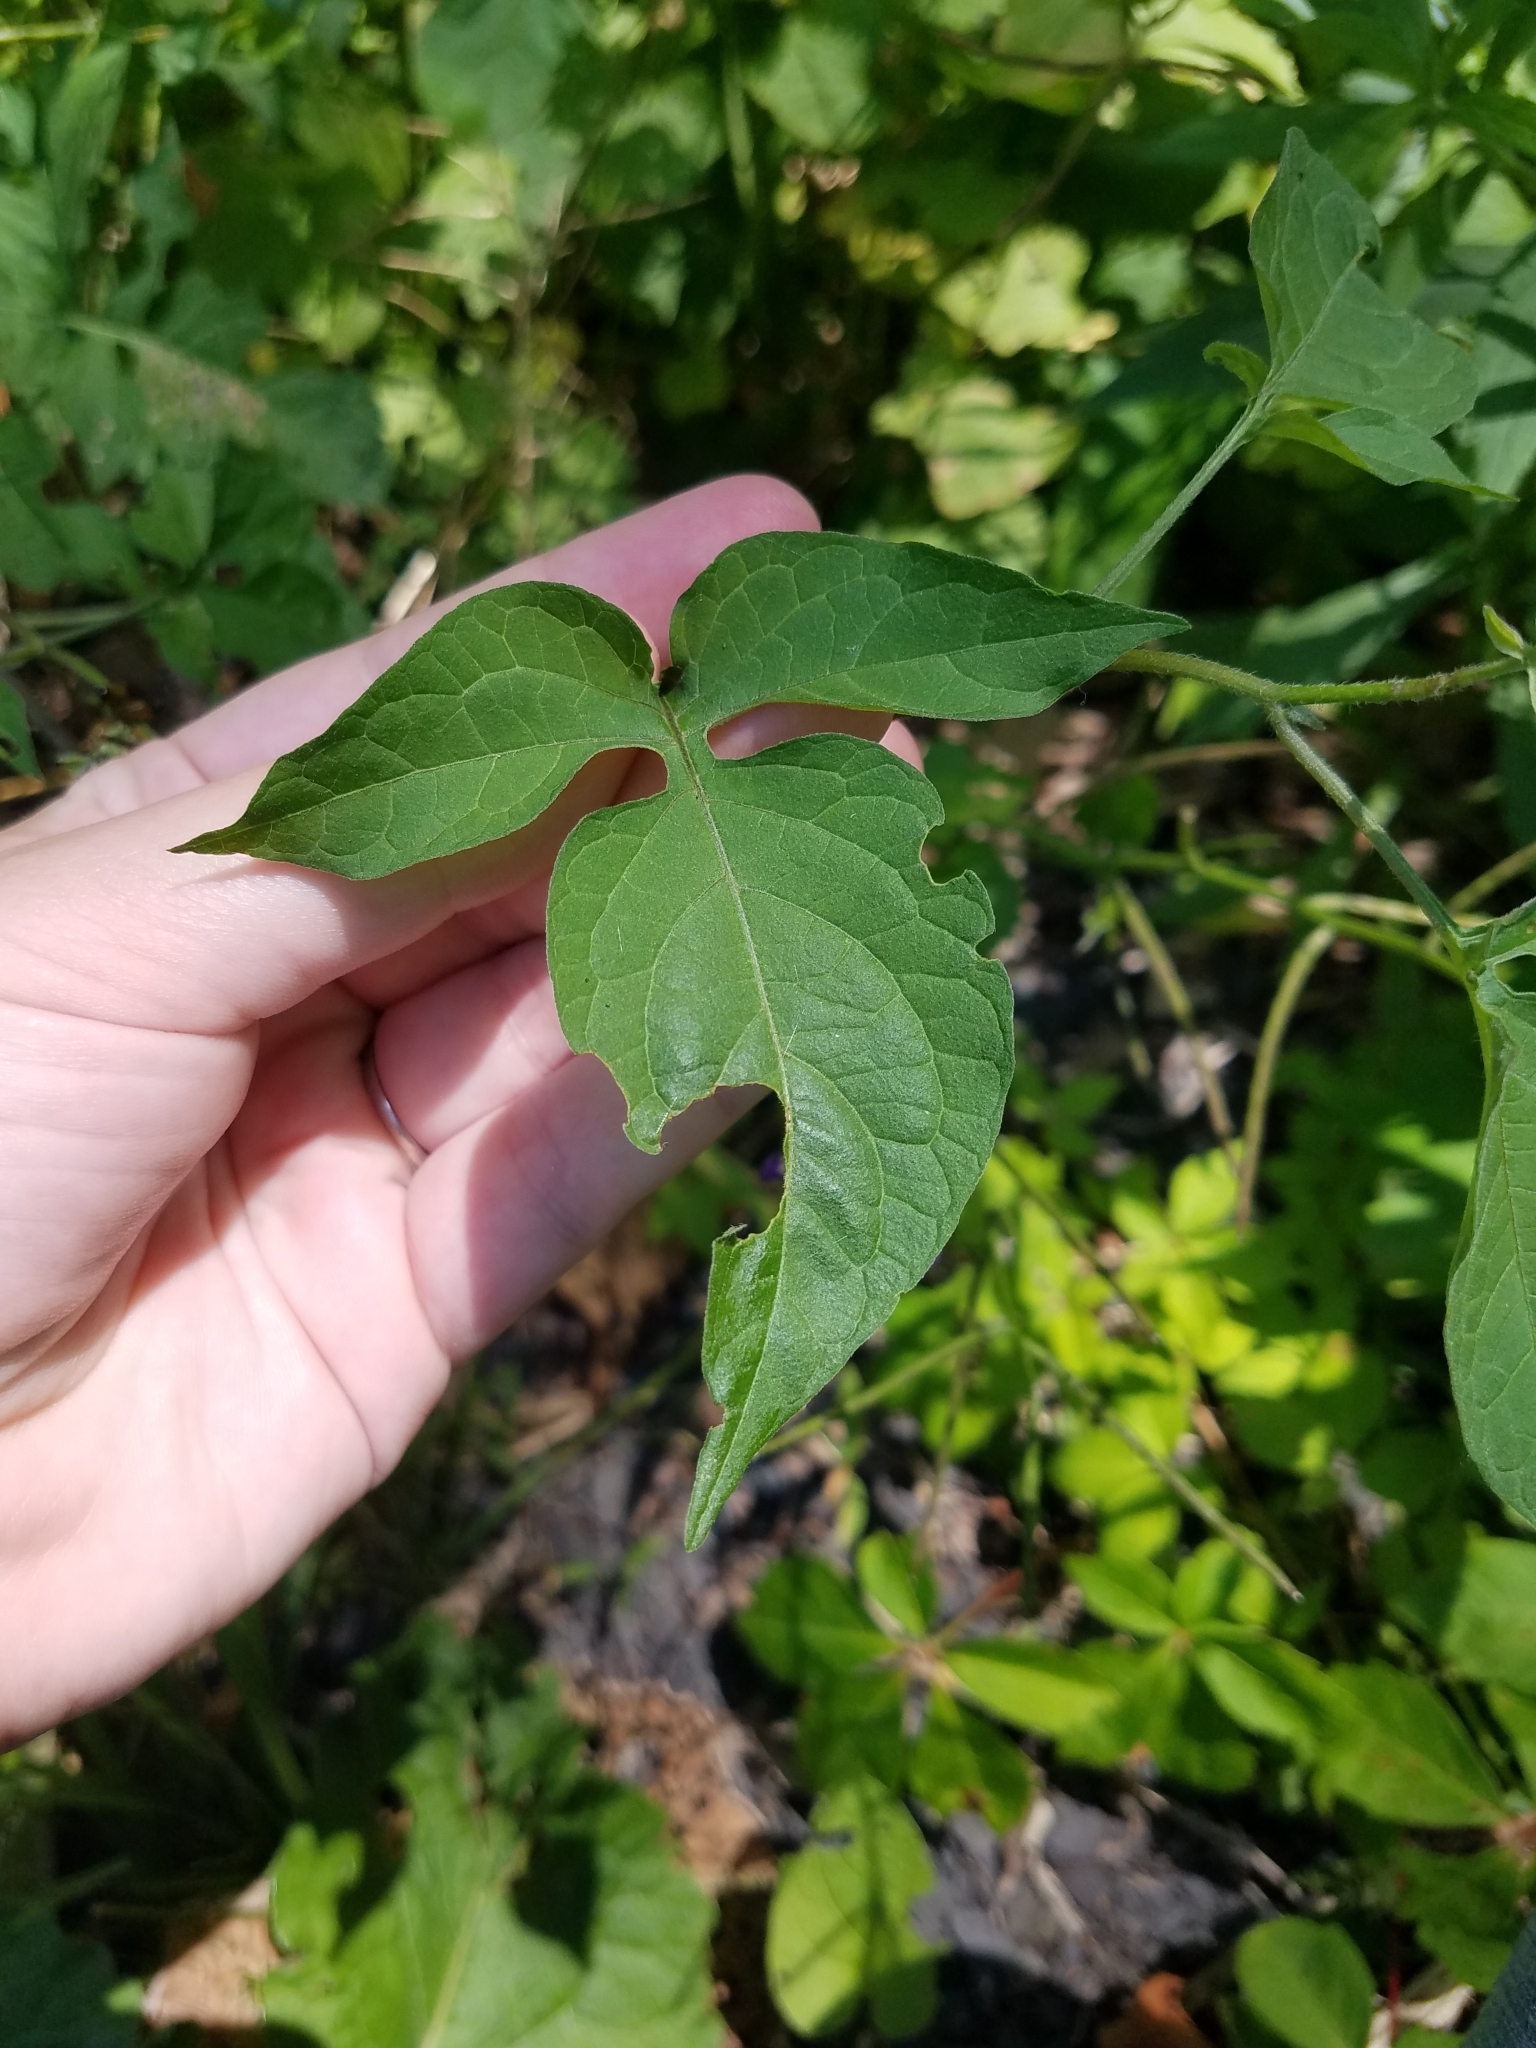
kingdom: Plantae
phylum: Tracheophyta
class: Magnoliopsida
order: Solanales
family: Solanaceae
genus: Solanum
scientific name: Solanum dulcamara
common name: Climbing nightshade
